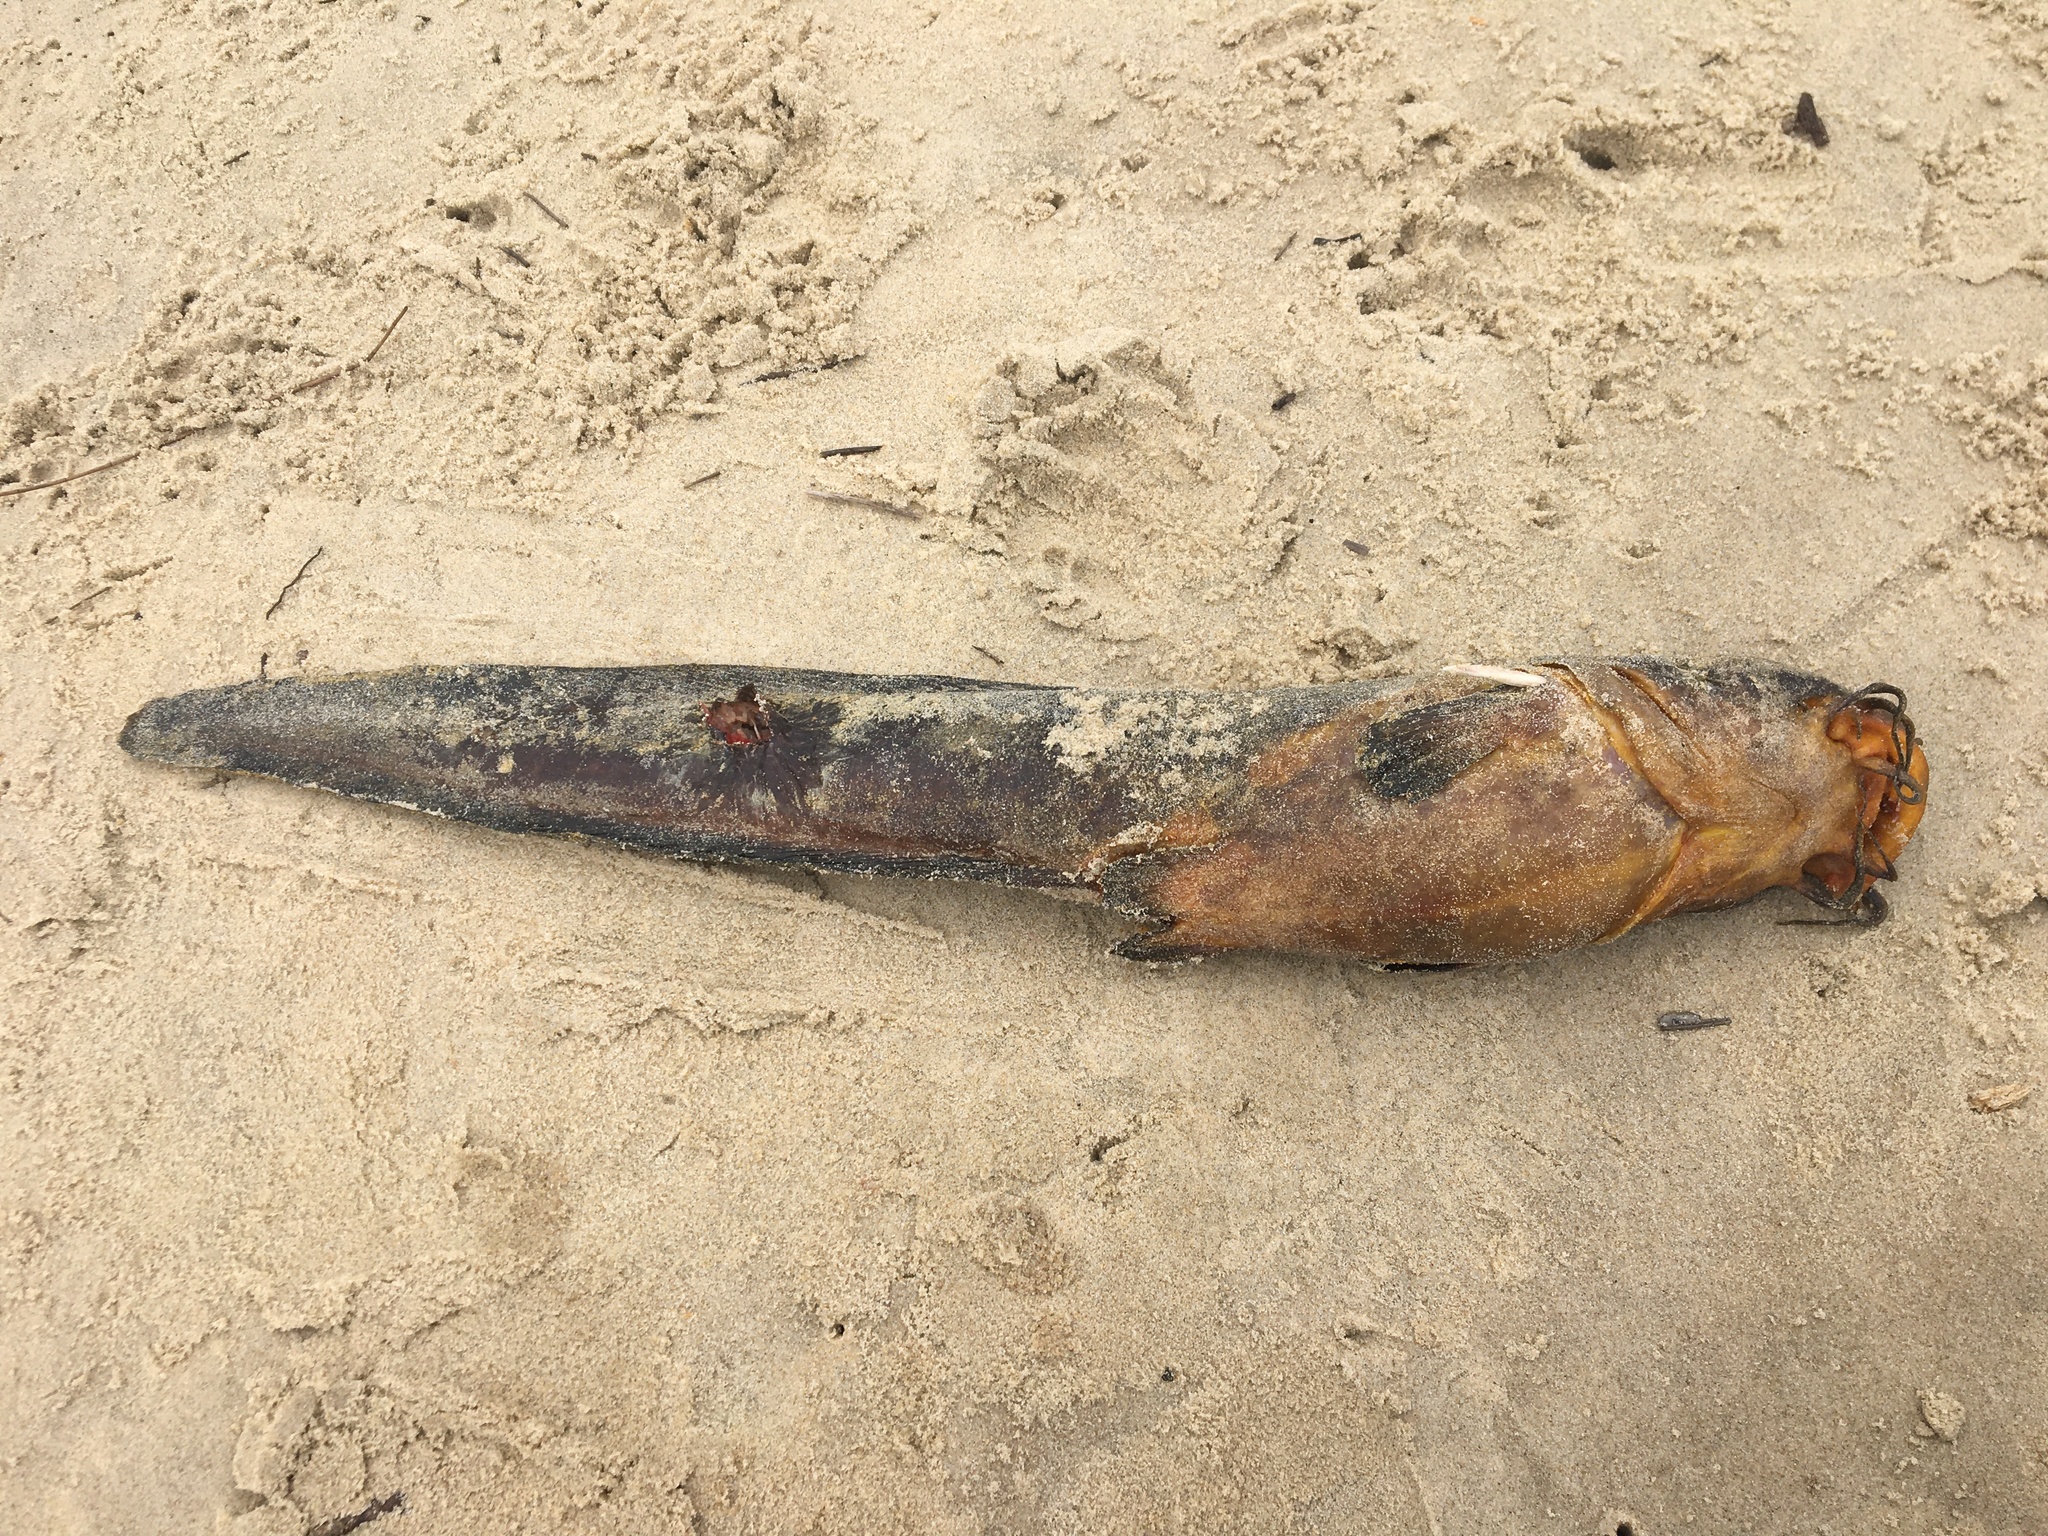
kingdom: Animalia
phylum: Chordata
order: Siluriformes
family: Plotosidae
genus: Cnidoglanis
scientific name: Cnidoglanis macrocephalus
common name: Cobbler
